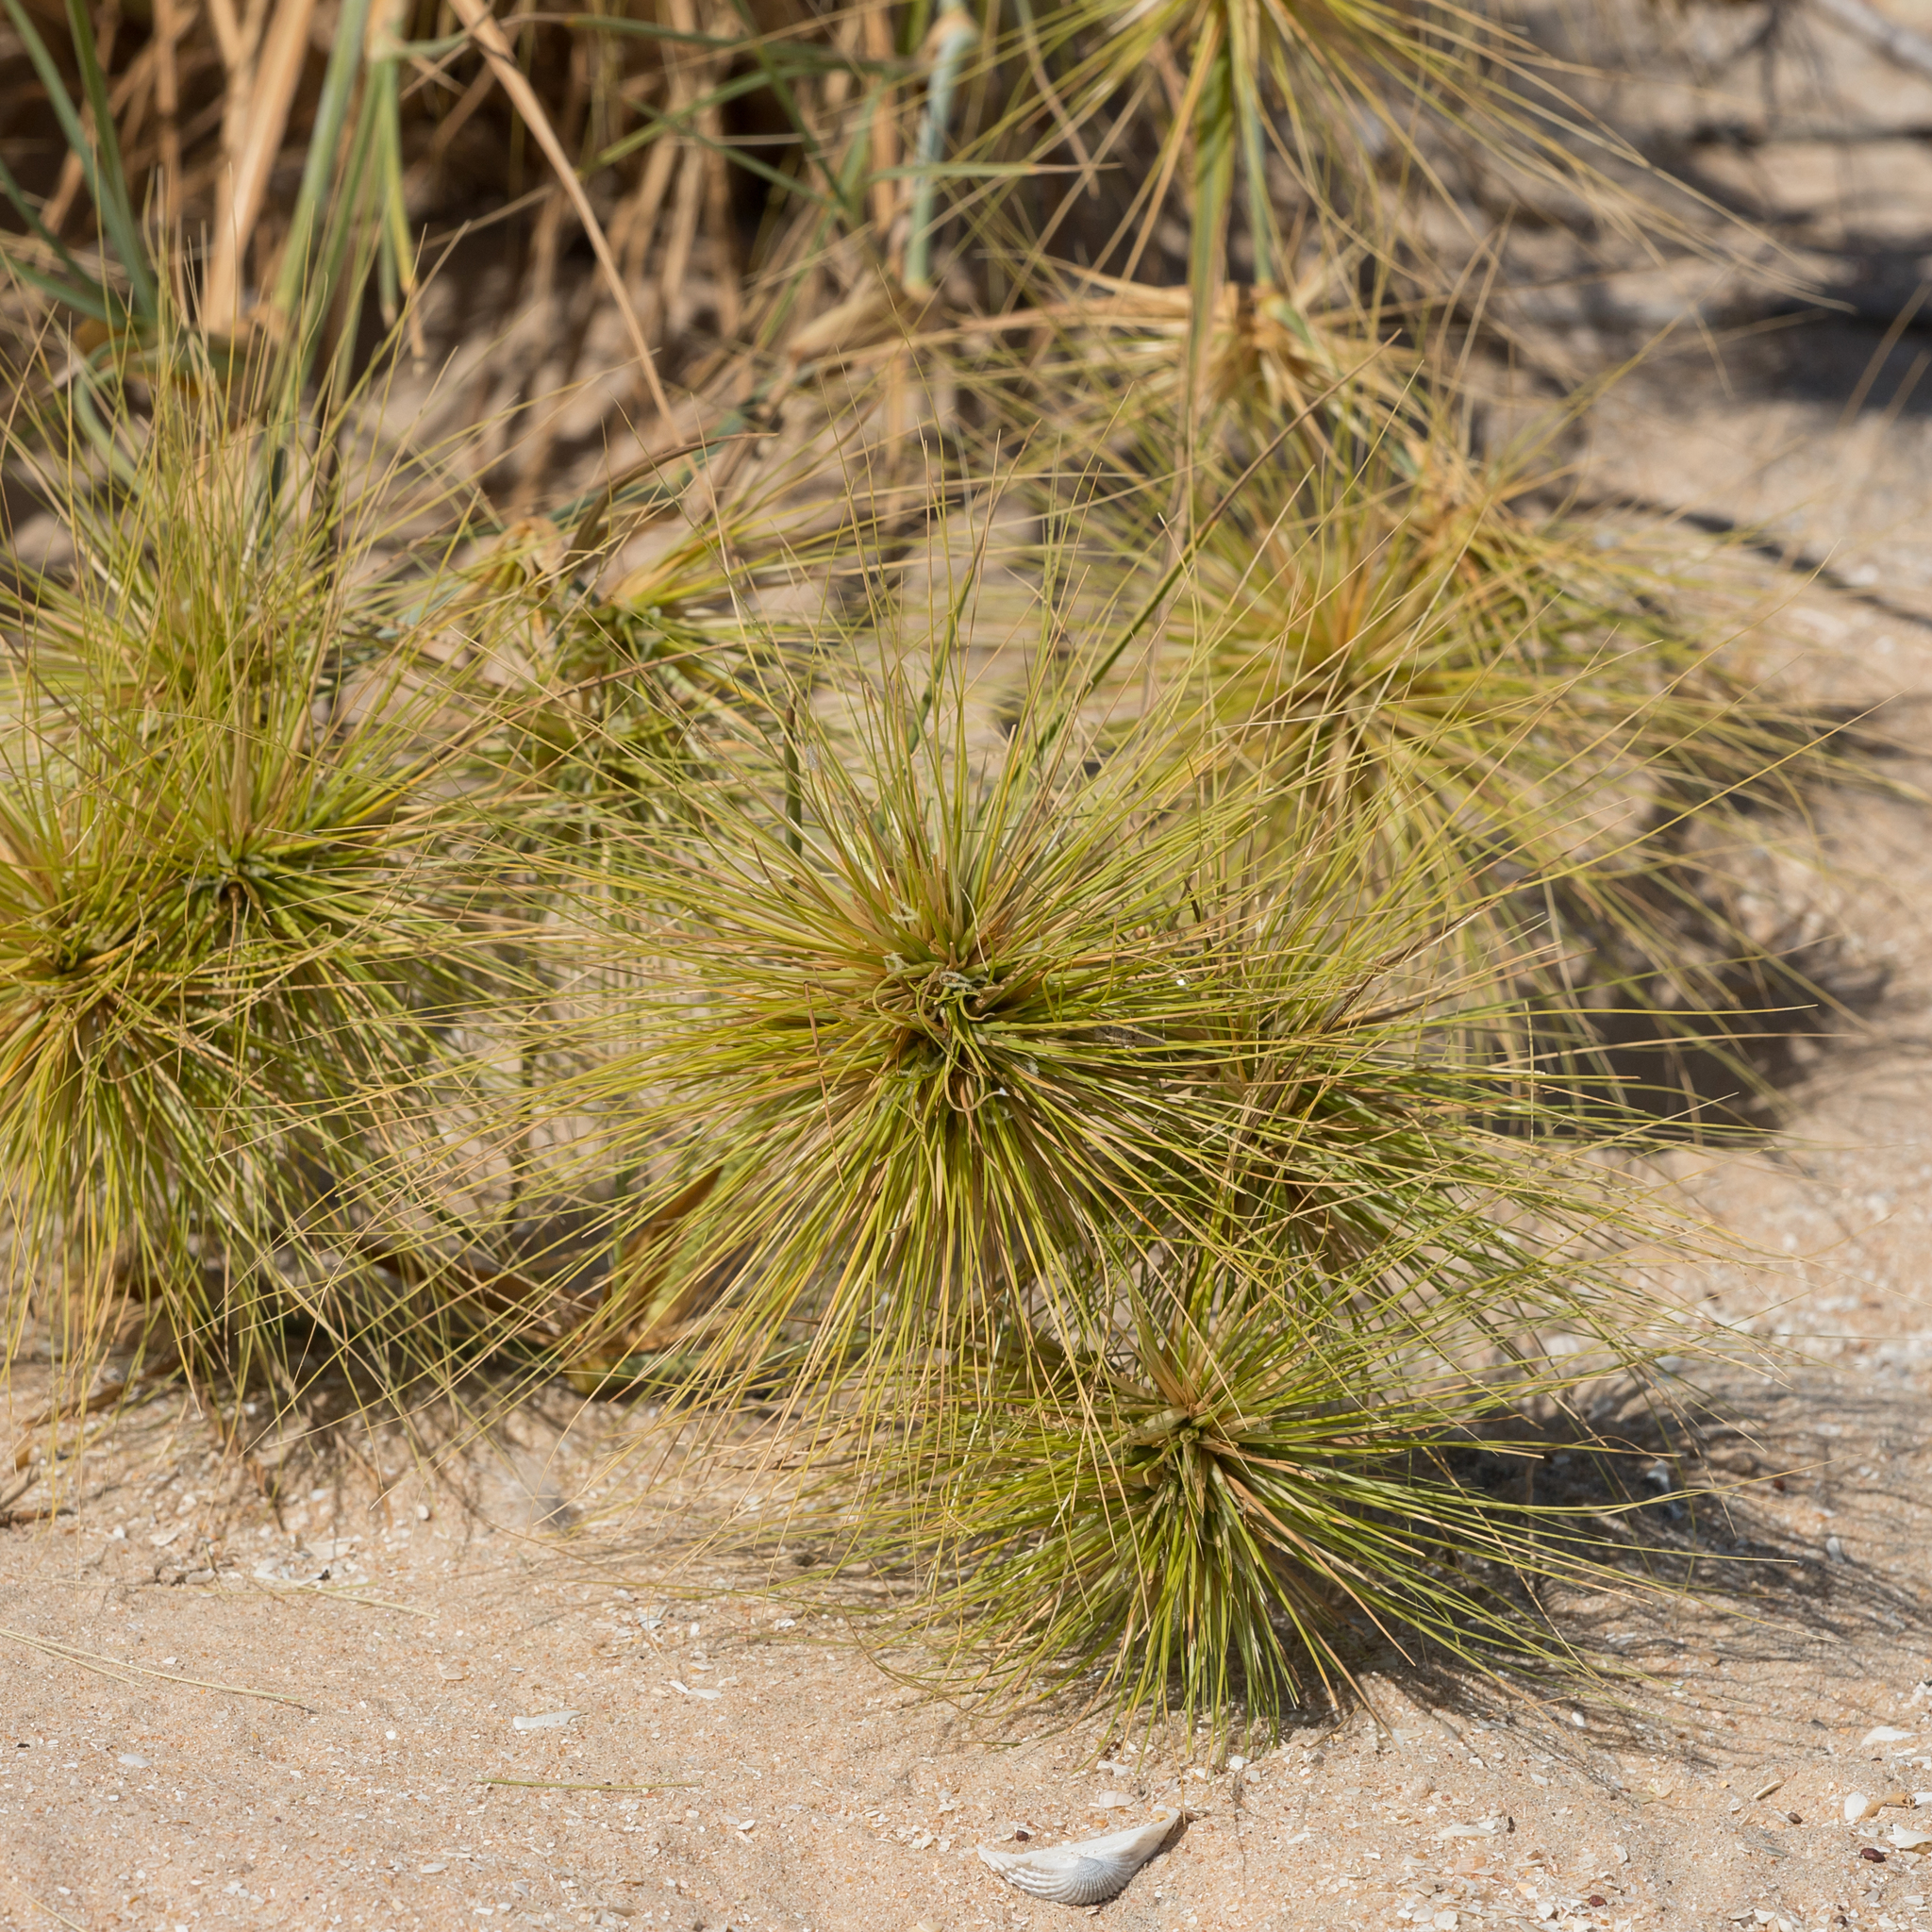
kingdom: Plantae
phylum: Tracheophyta
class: Liliopsida
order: Poales
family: Poaceae
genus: Spinifex
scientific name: Spinifex longifolius
